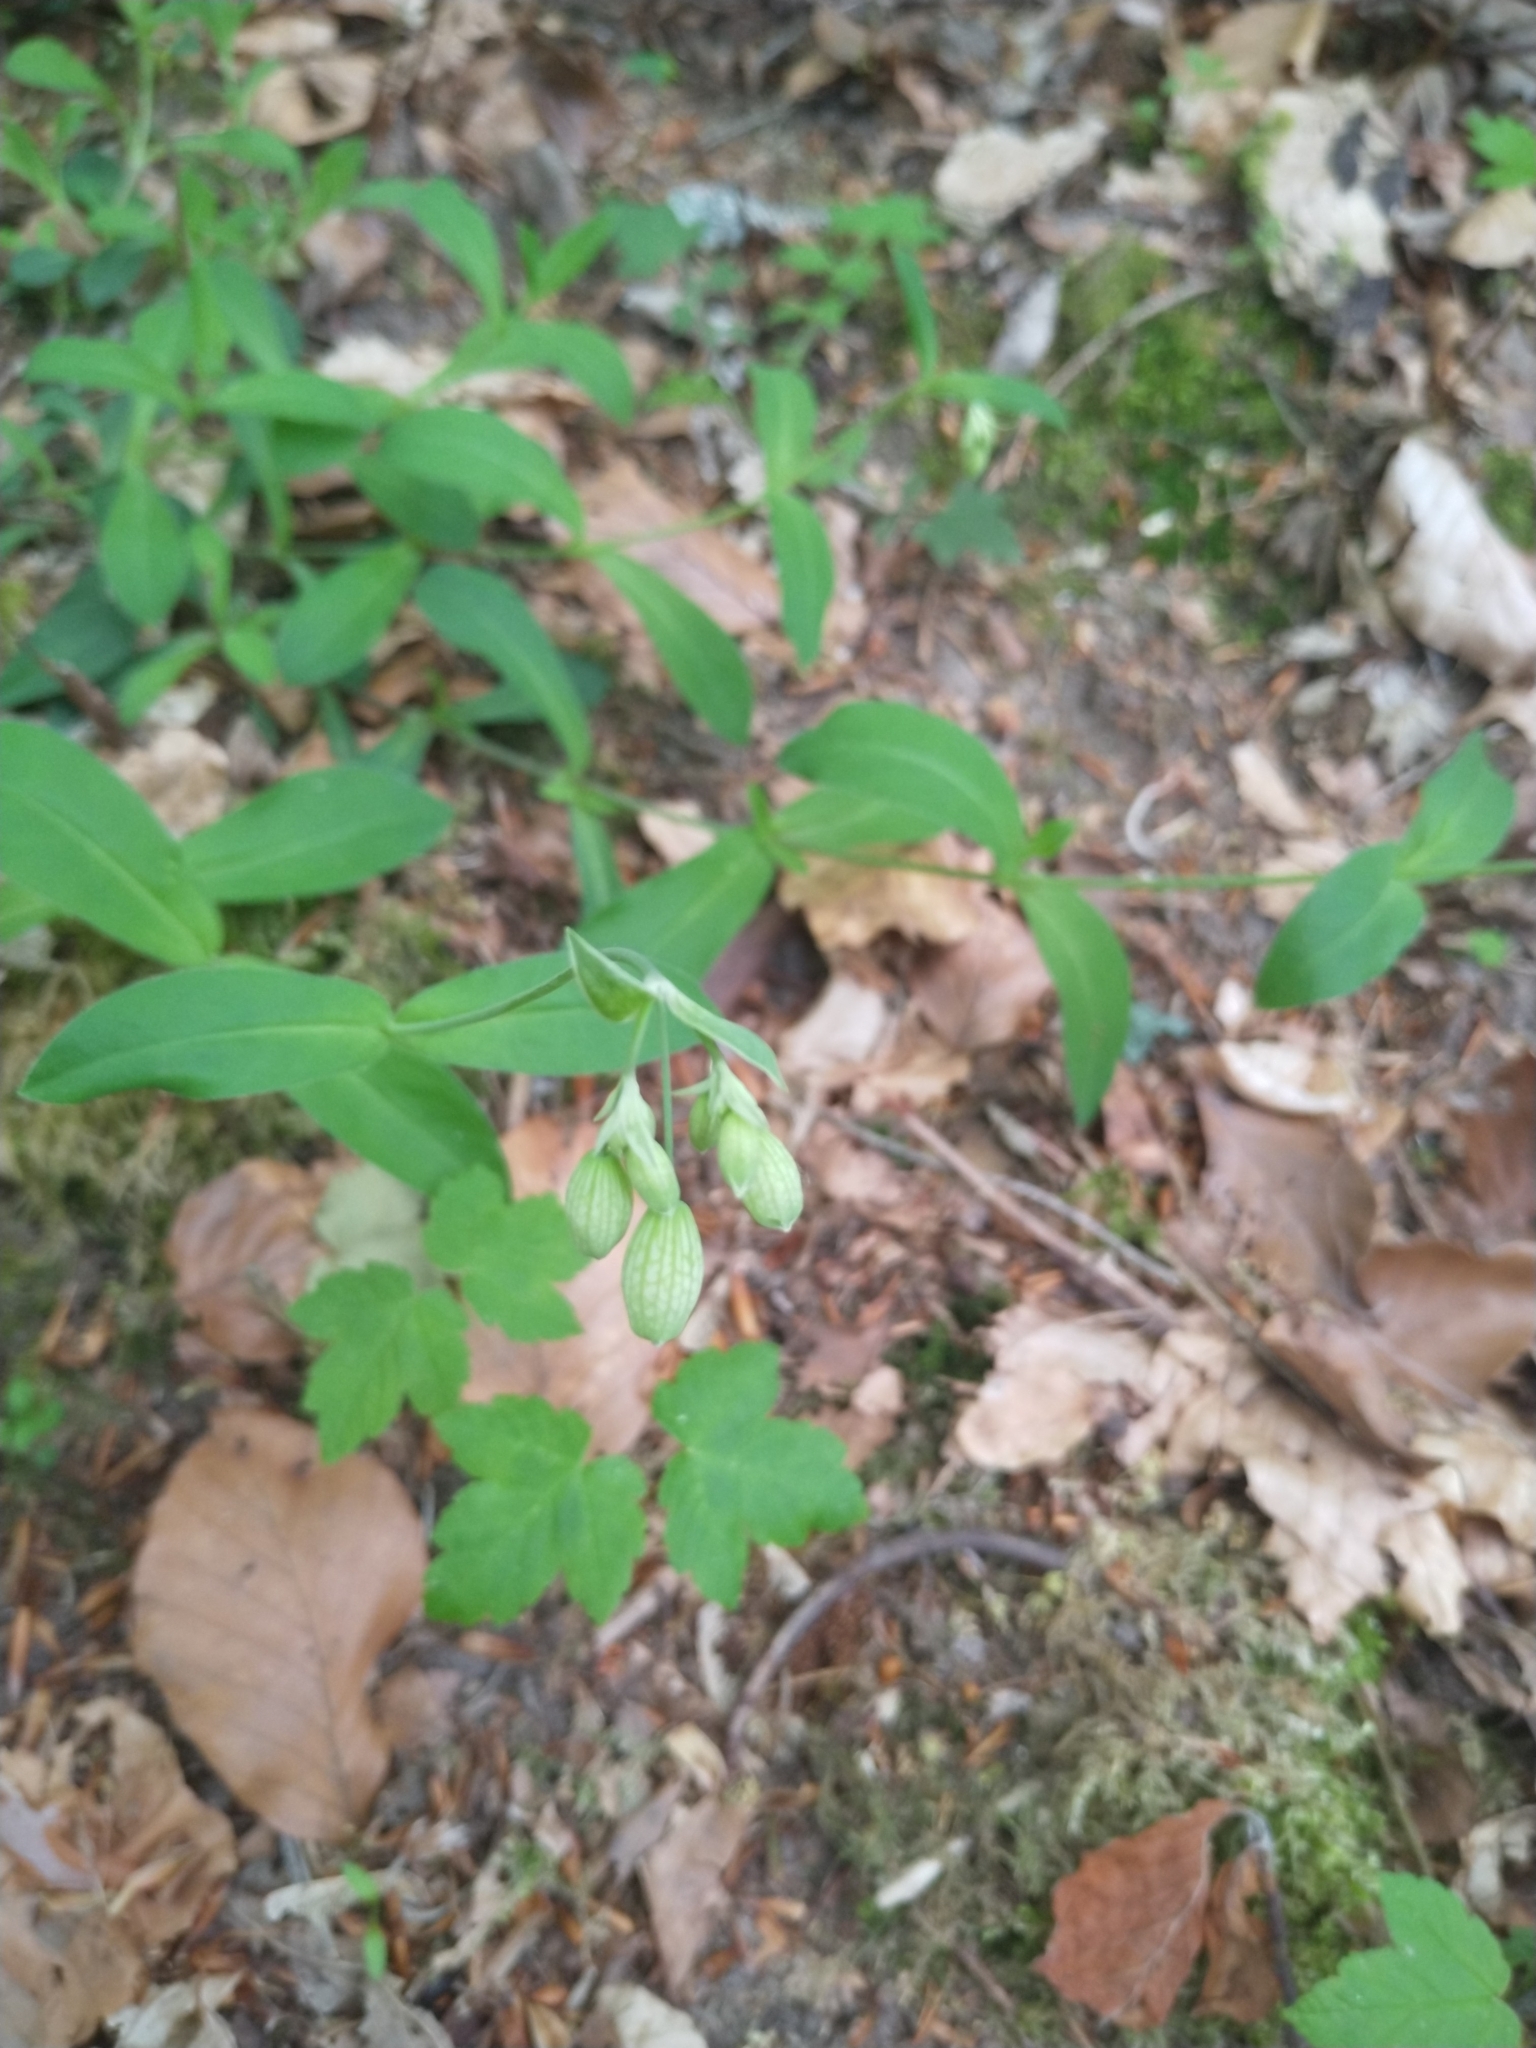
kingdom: Plantae
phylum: Tracheophyta
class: Magnoliopsida
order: Caryophyllales
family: Caryophyllaceae
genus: Silene
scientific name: Silene vulgaris
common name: Bladder campion
